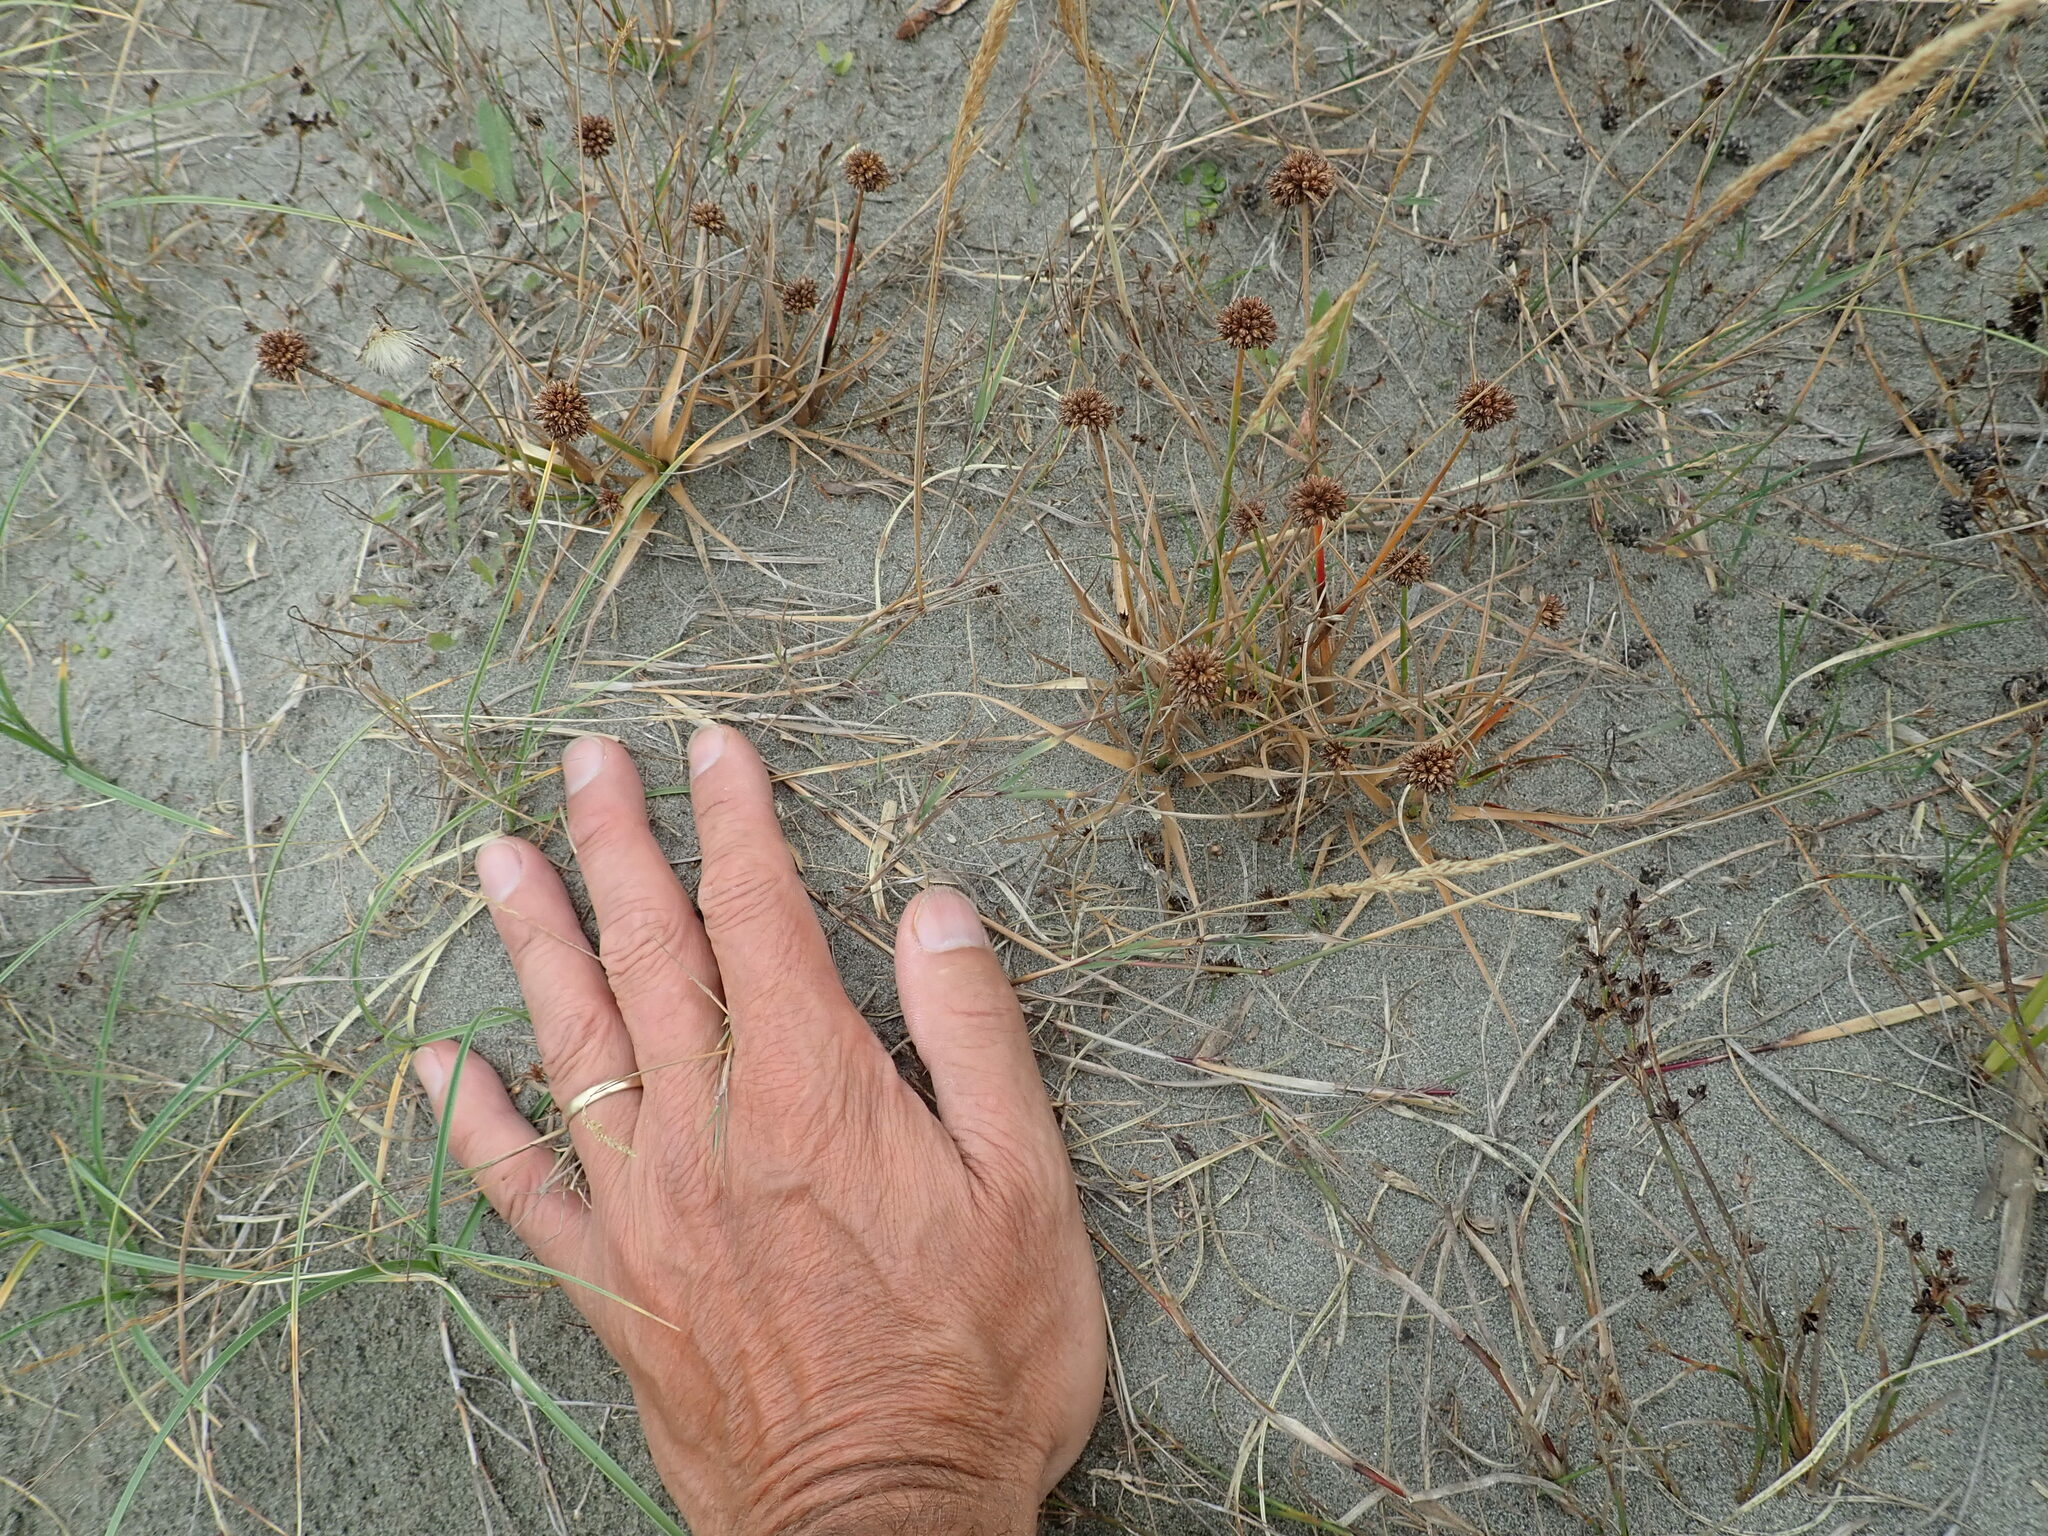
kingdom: Plantae
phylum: Tracheophyta
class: Liliopsida
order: Poales
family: Juncaceae
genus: Juncus
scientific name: Juncus caespiticius
